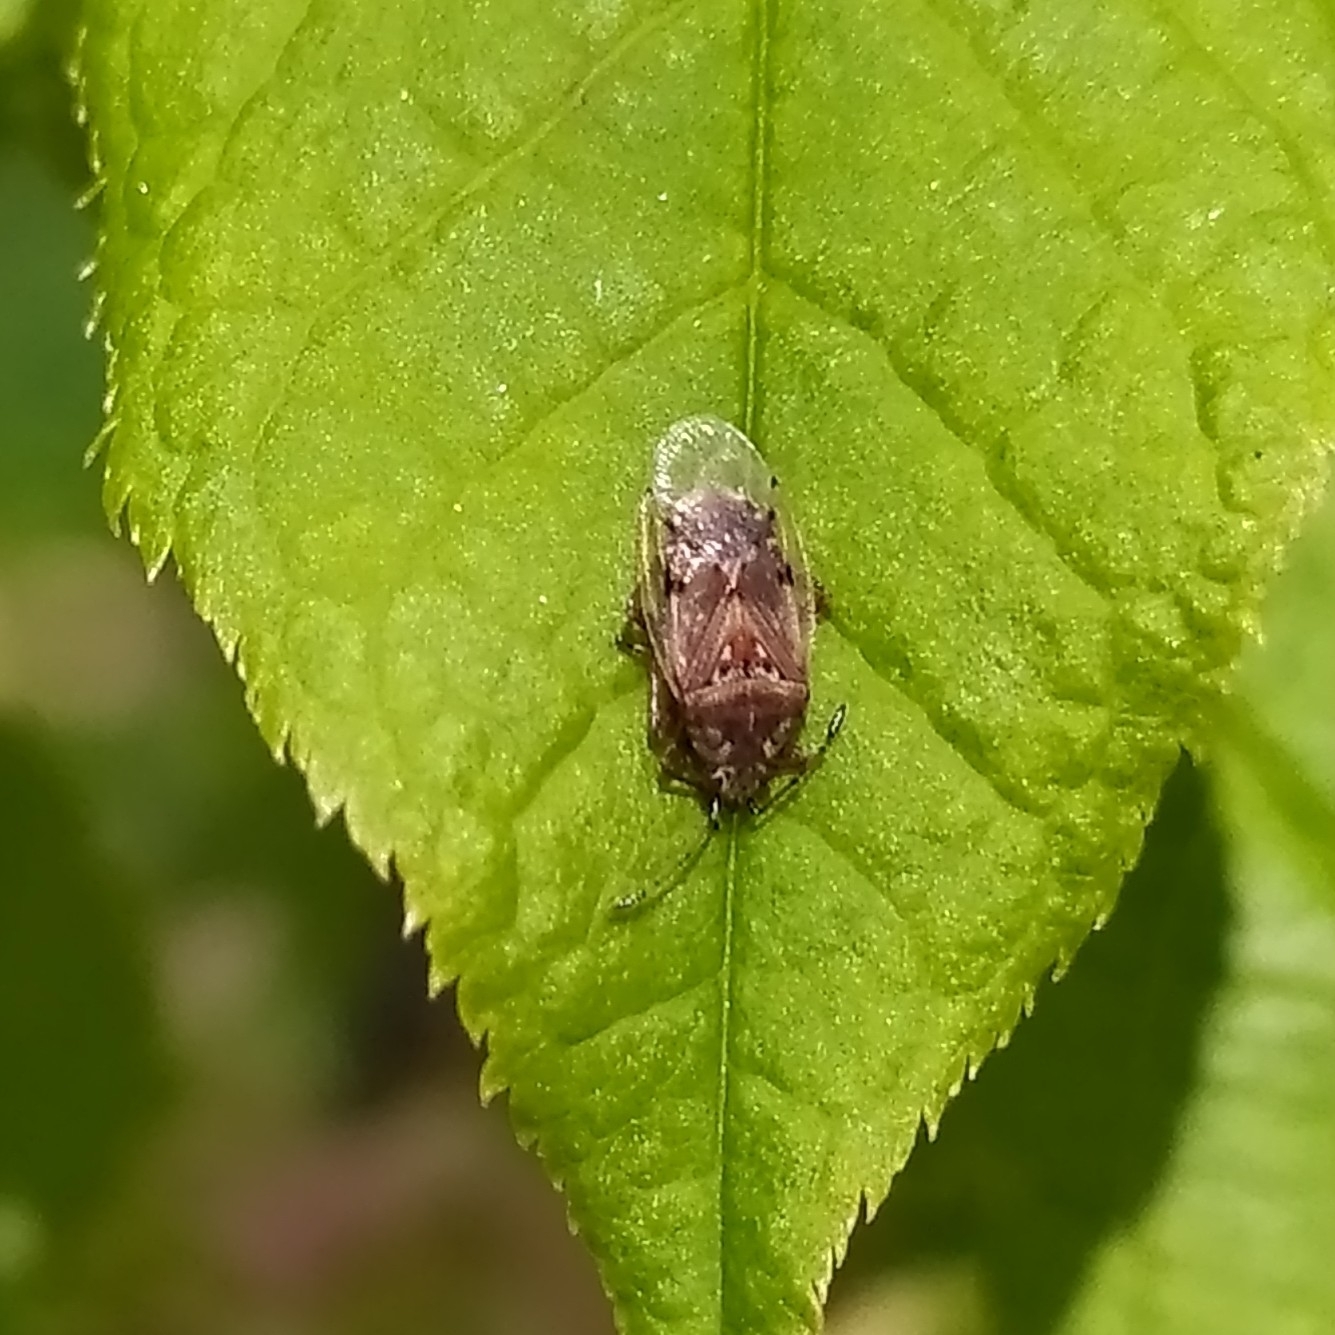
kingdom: Animalia
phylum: Arthropoda
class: Insecta
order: Hemiptera
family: Lygaeidae
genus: Kleidocerys
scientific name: Kleidocerys resedae
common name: Birch catkin bug
